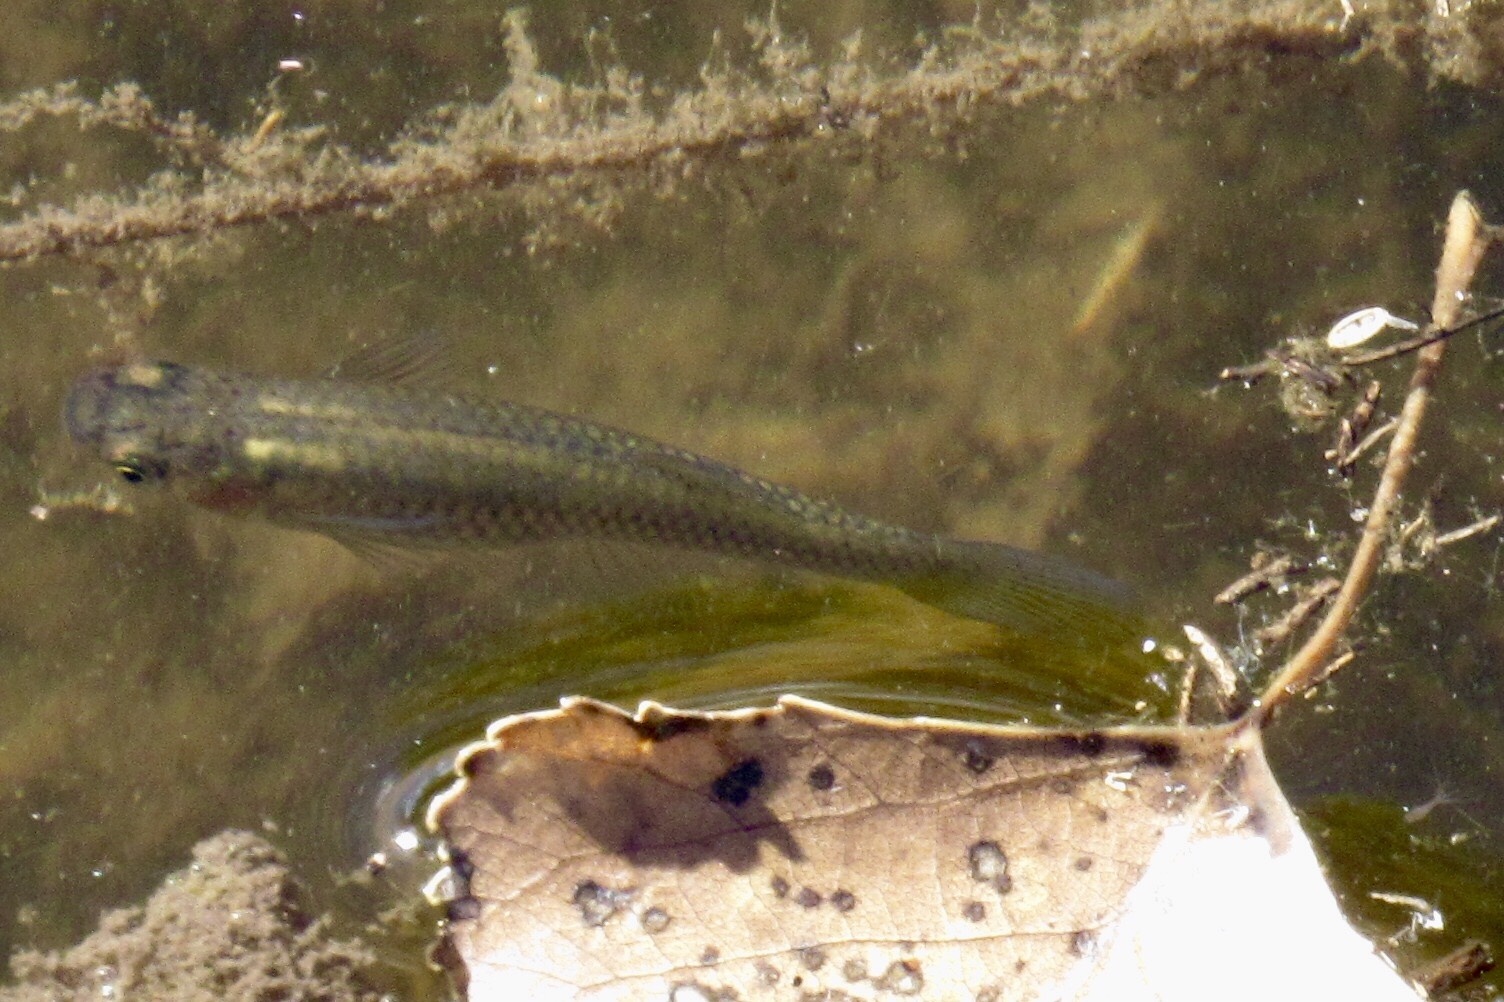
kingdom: Animalia
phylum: Chordata
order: Cyprinodontiformes
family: Poeciliidae
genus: Gambusia
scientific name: Gambusia affinis
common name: Mosquitofish
